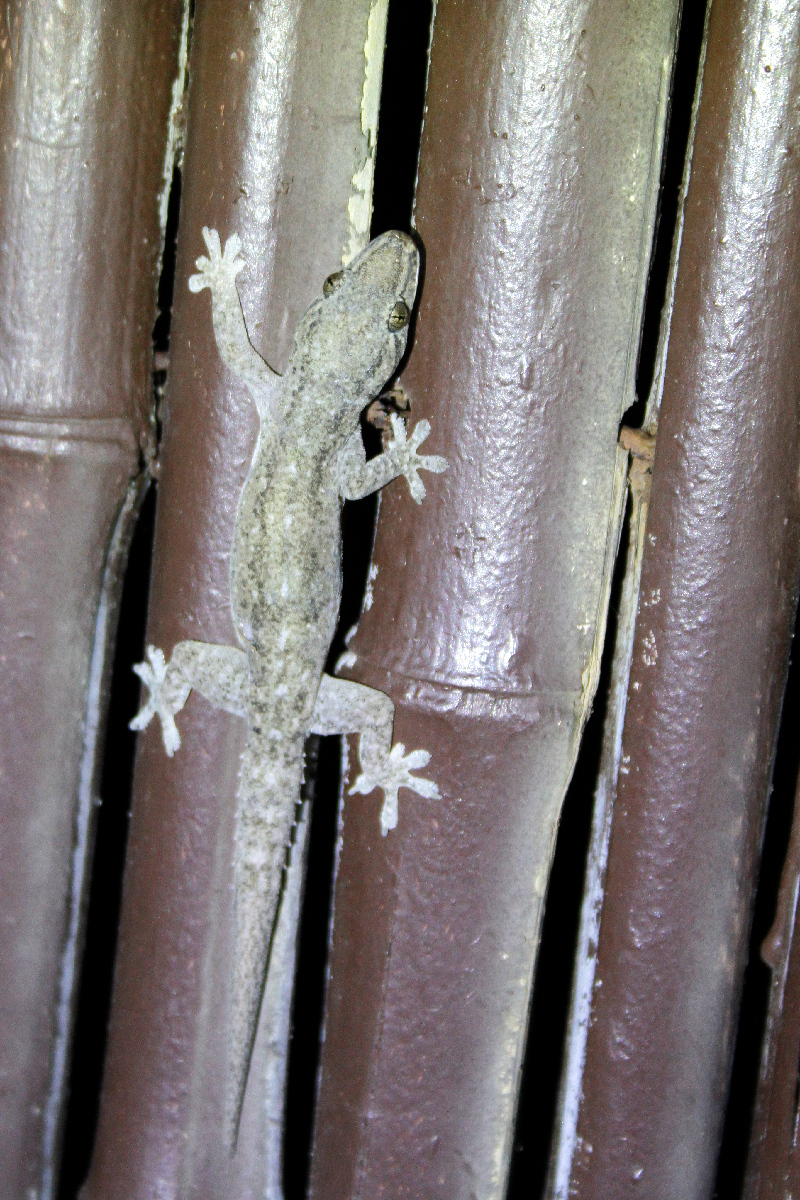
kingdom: Animalia
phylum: Chordata
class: Squamata
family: Gekkonidae
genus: Hemidactylus
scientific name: Hemidactylus frenatus
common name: Common house gecko
